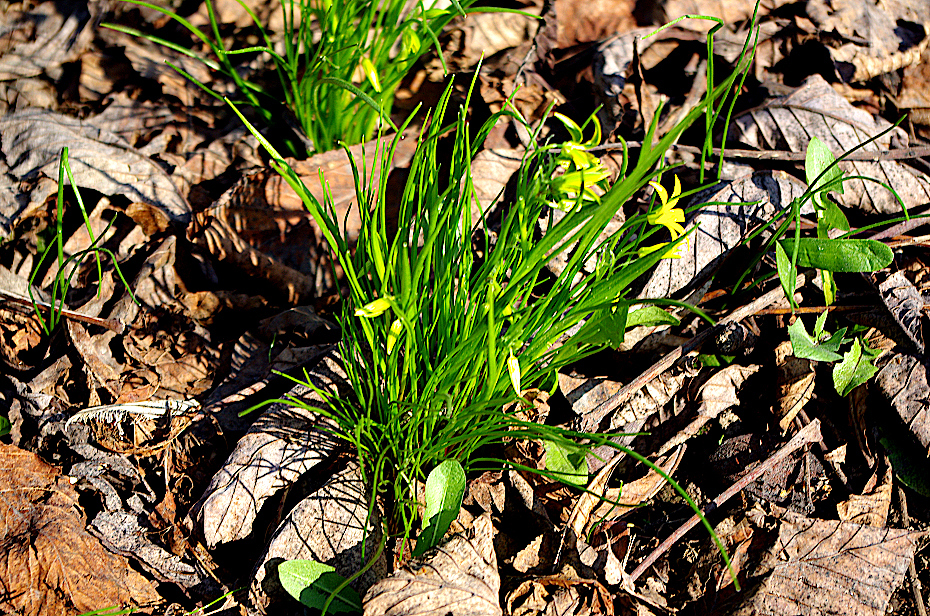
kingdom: Plantae
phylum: Tracheophyta
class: Liliopsida
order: Liliales
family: Liliaceae
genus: Gagea
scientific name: Gagea minima
